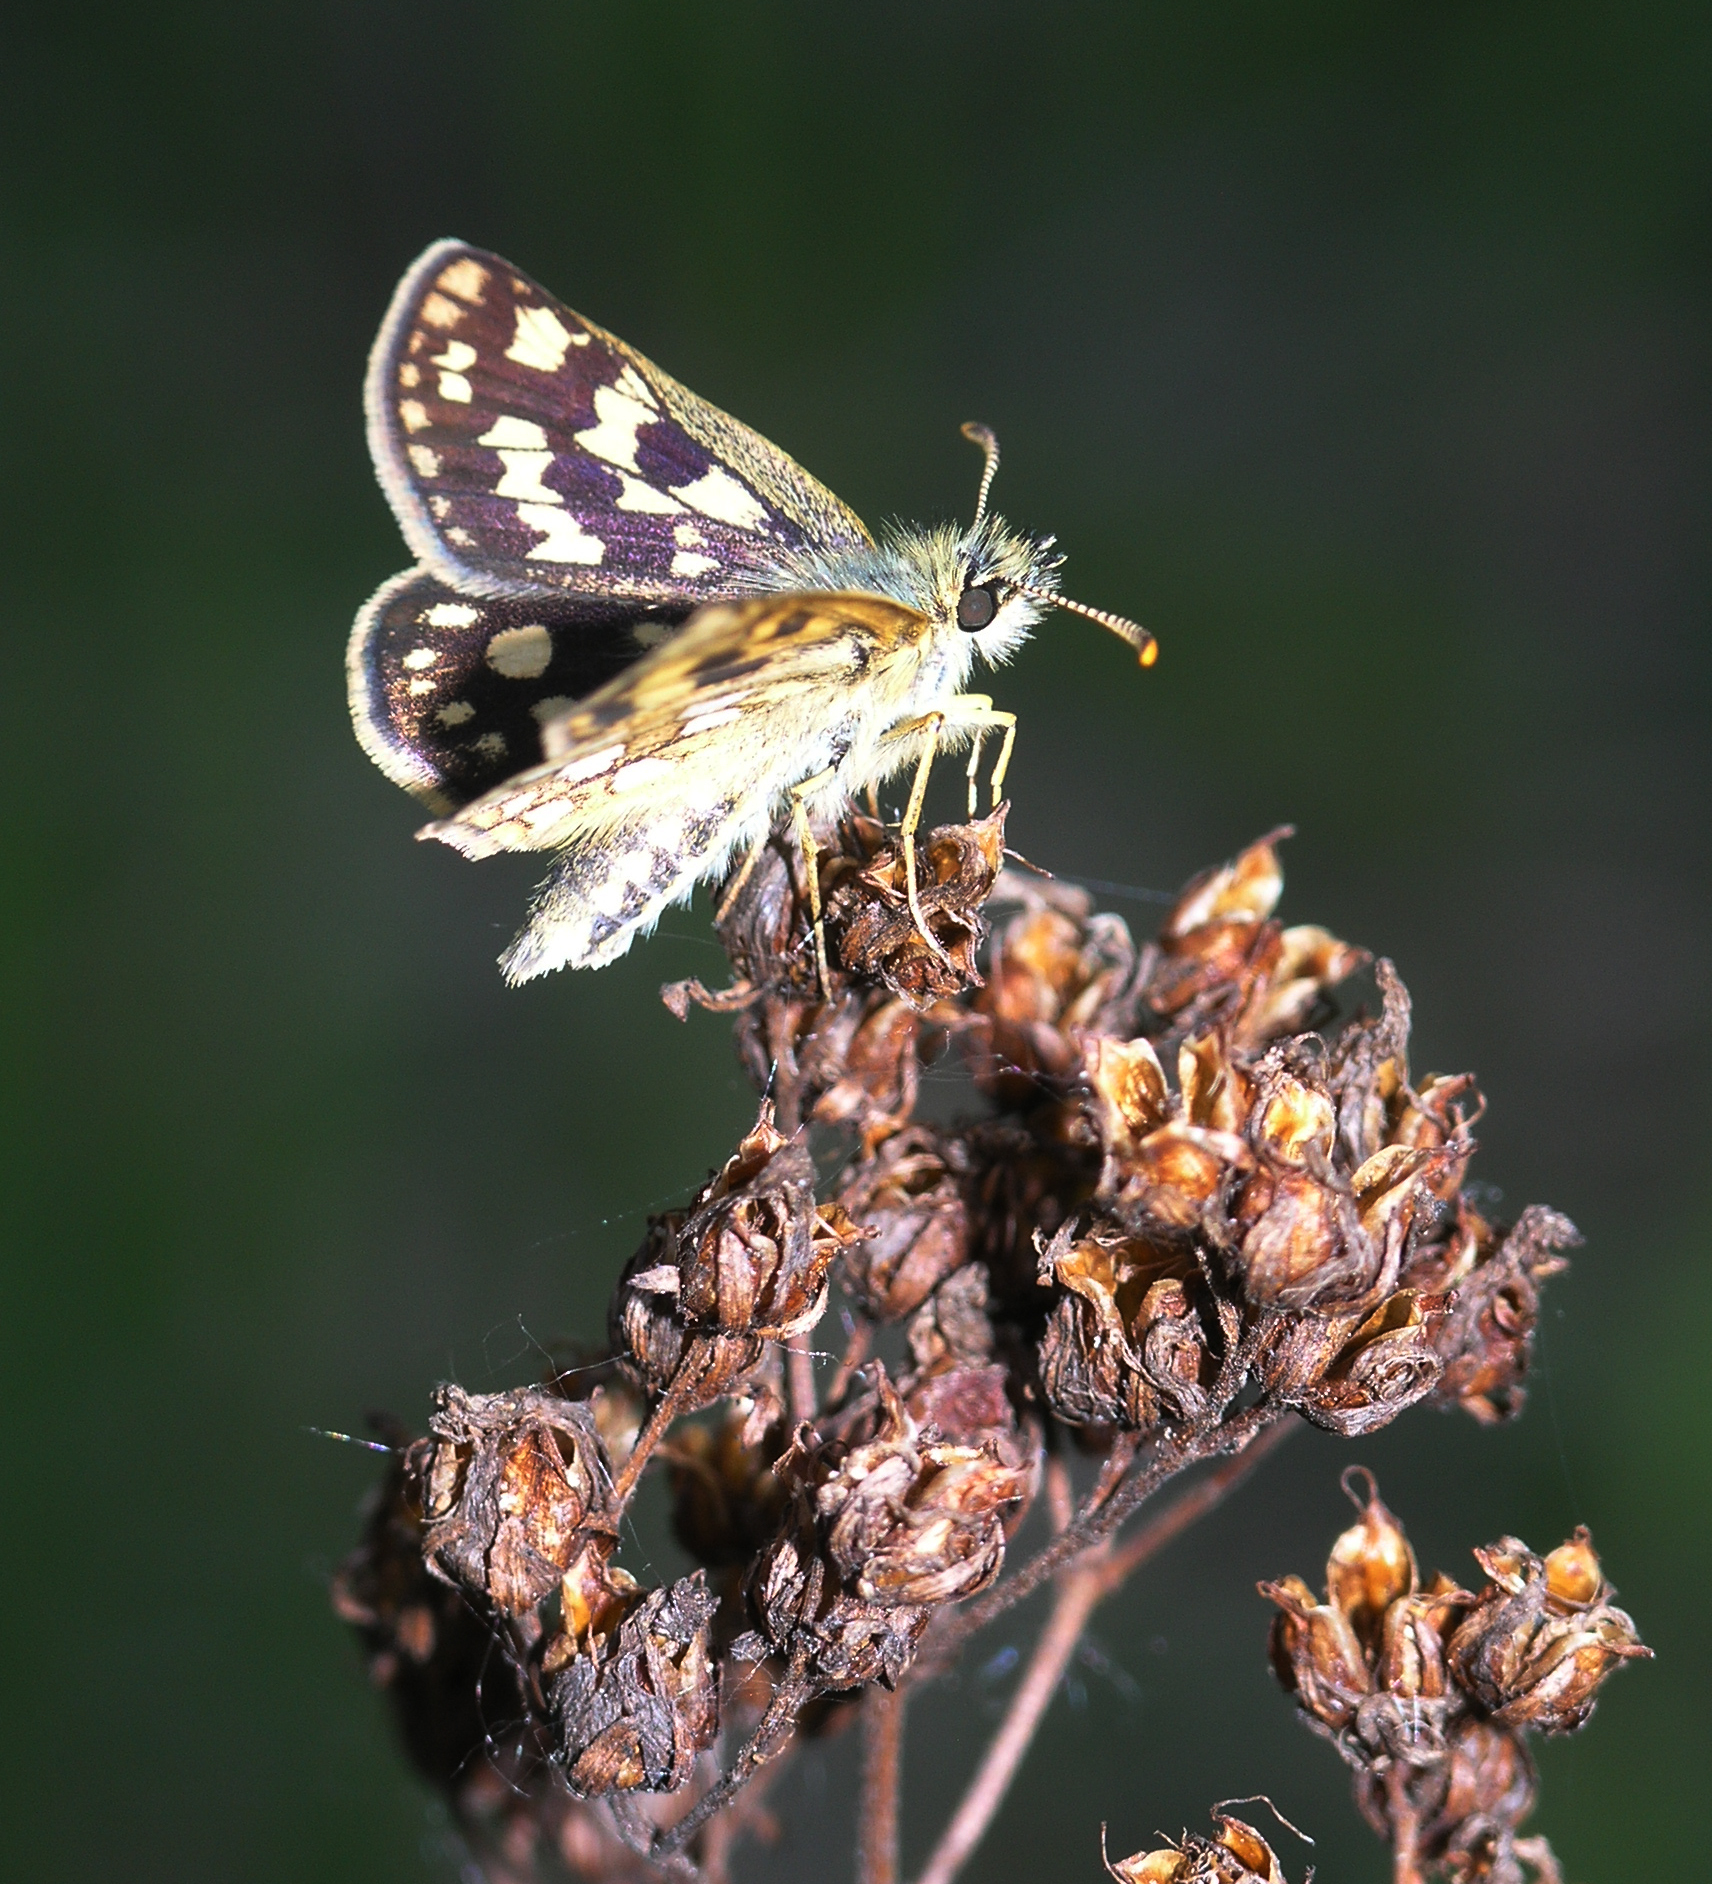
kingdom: Animalia
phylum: Arthropoda
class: Insecta
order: Lepidoptera
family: Hesperiidae
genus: Carterocephalus
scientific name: Carterocephalus palaemon
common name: Chequered skipper
